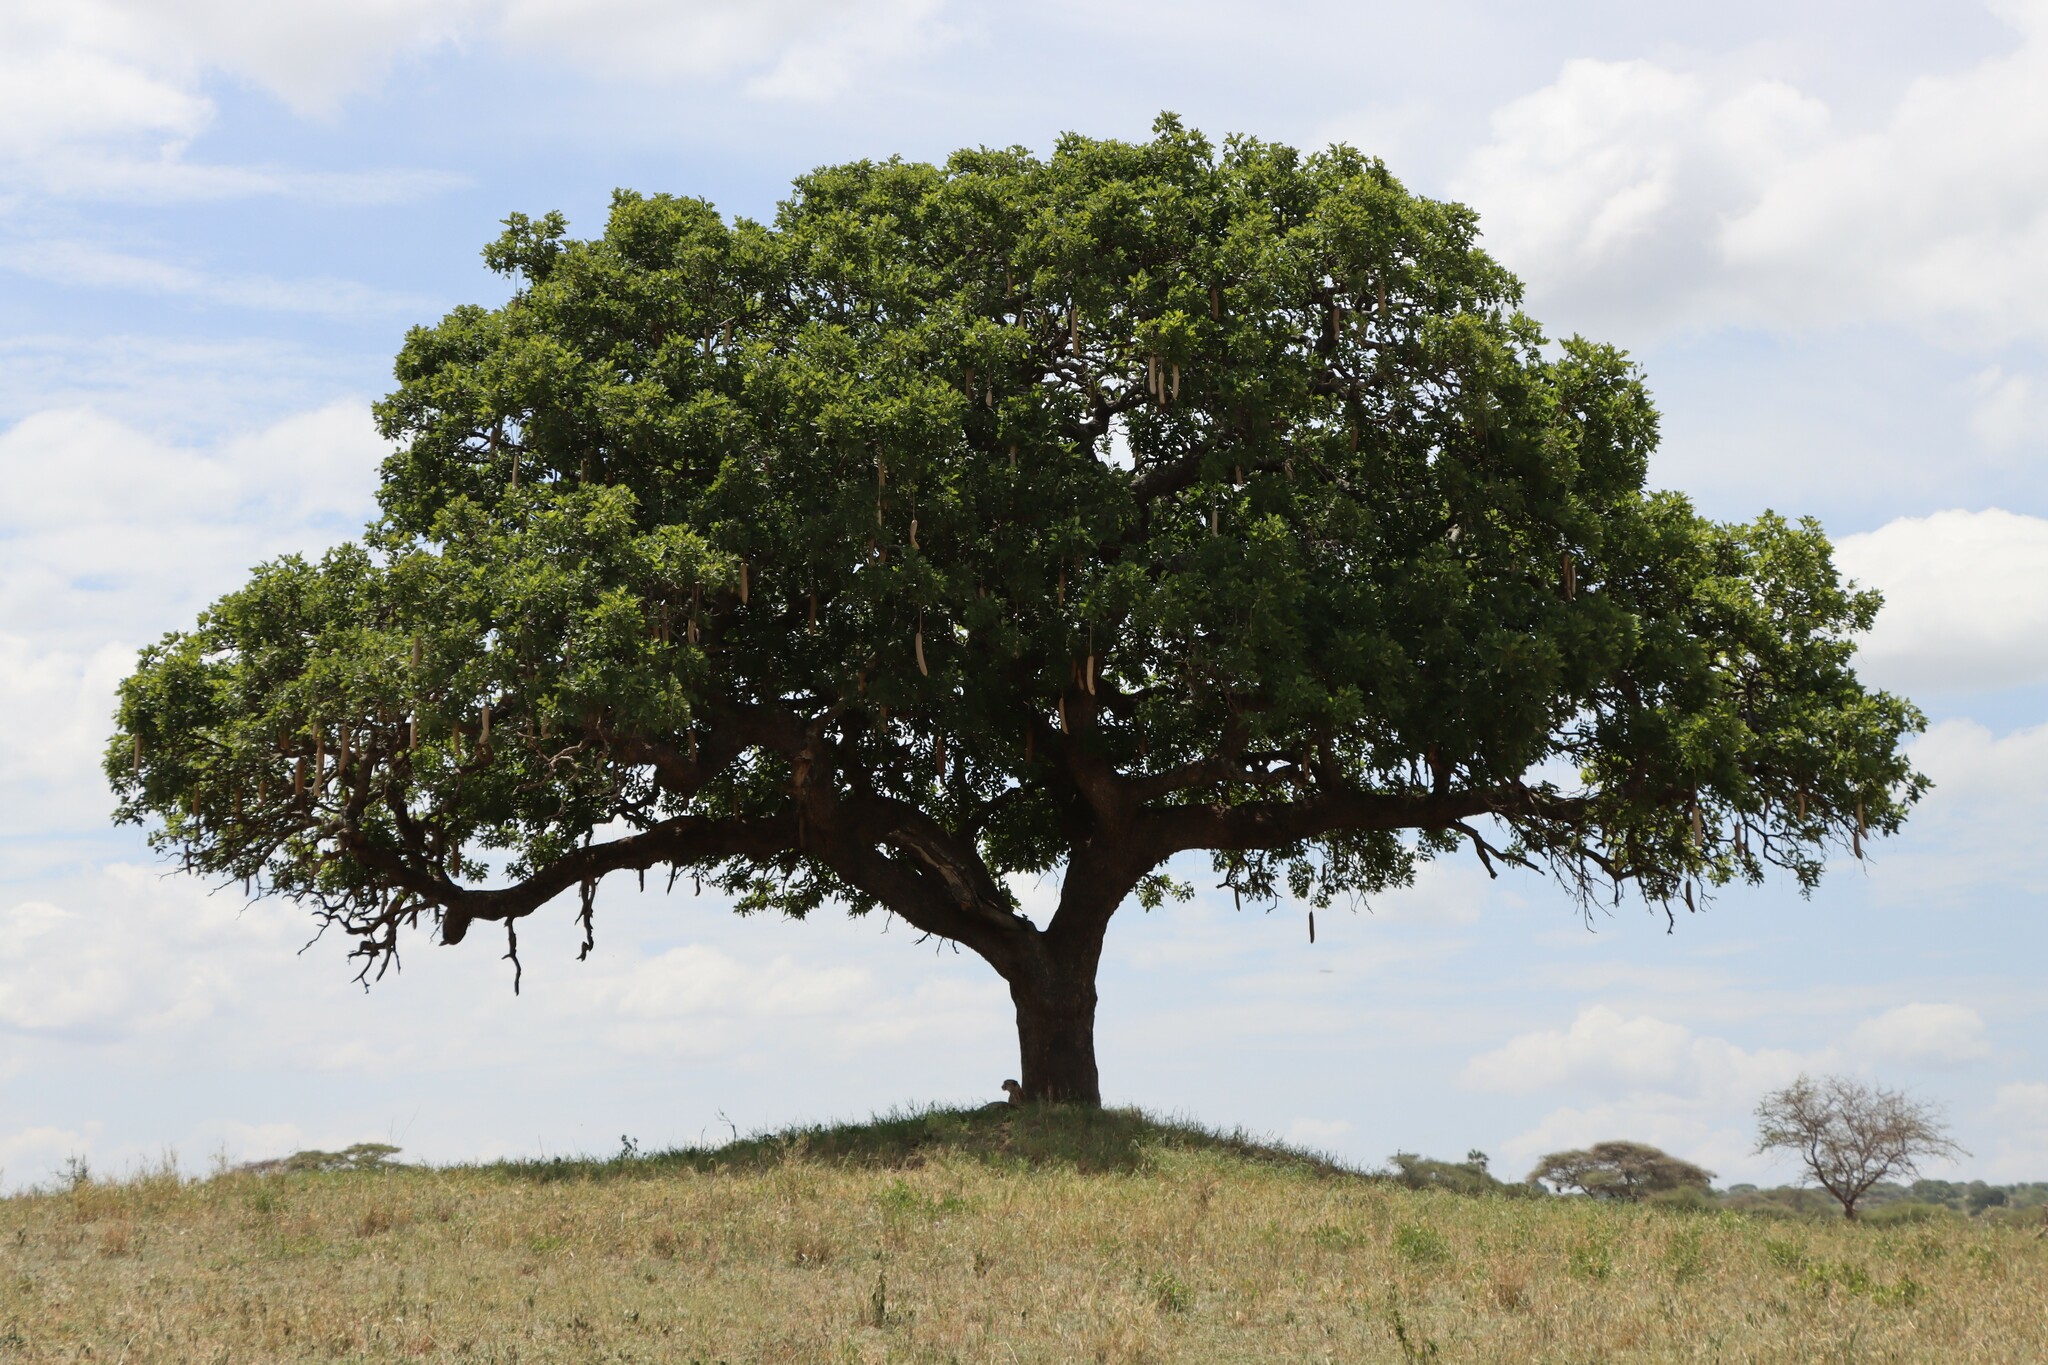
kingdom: Plantae
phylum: Tracheophyta
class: Magnoliopsida
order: Lamiales
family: Bignoniaceae
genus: Kigelia
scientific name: Kigelia africana
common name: Sausage tree
